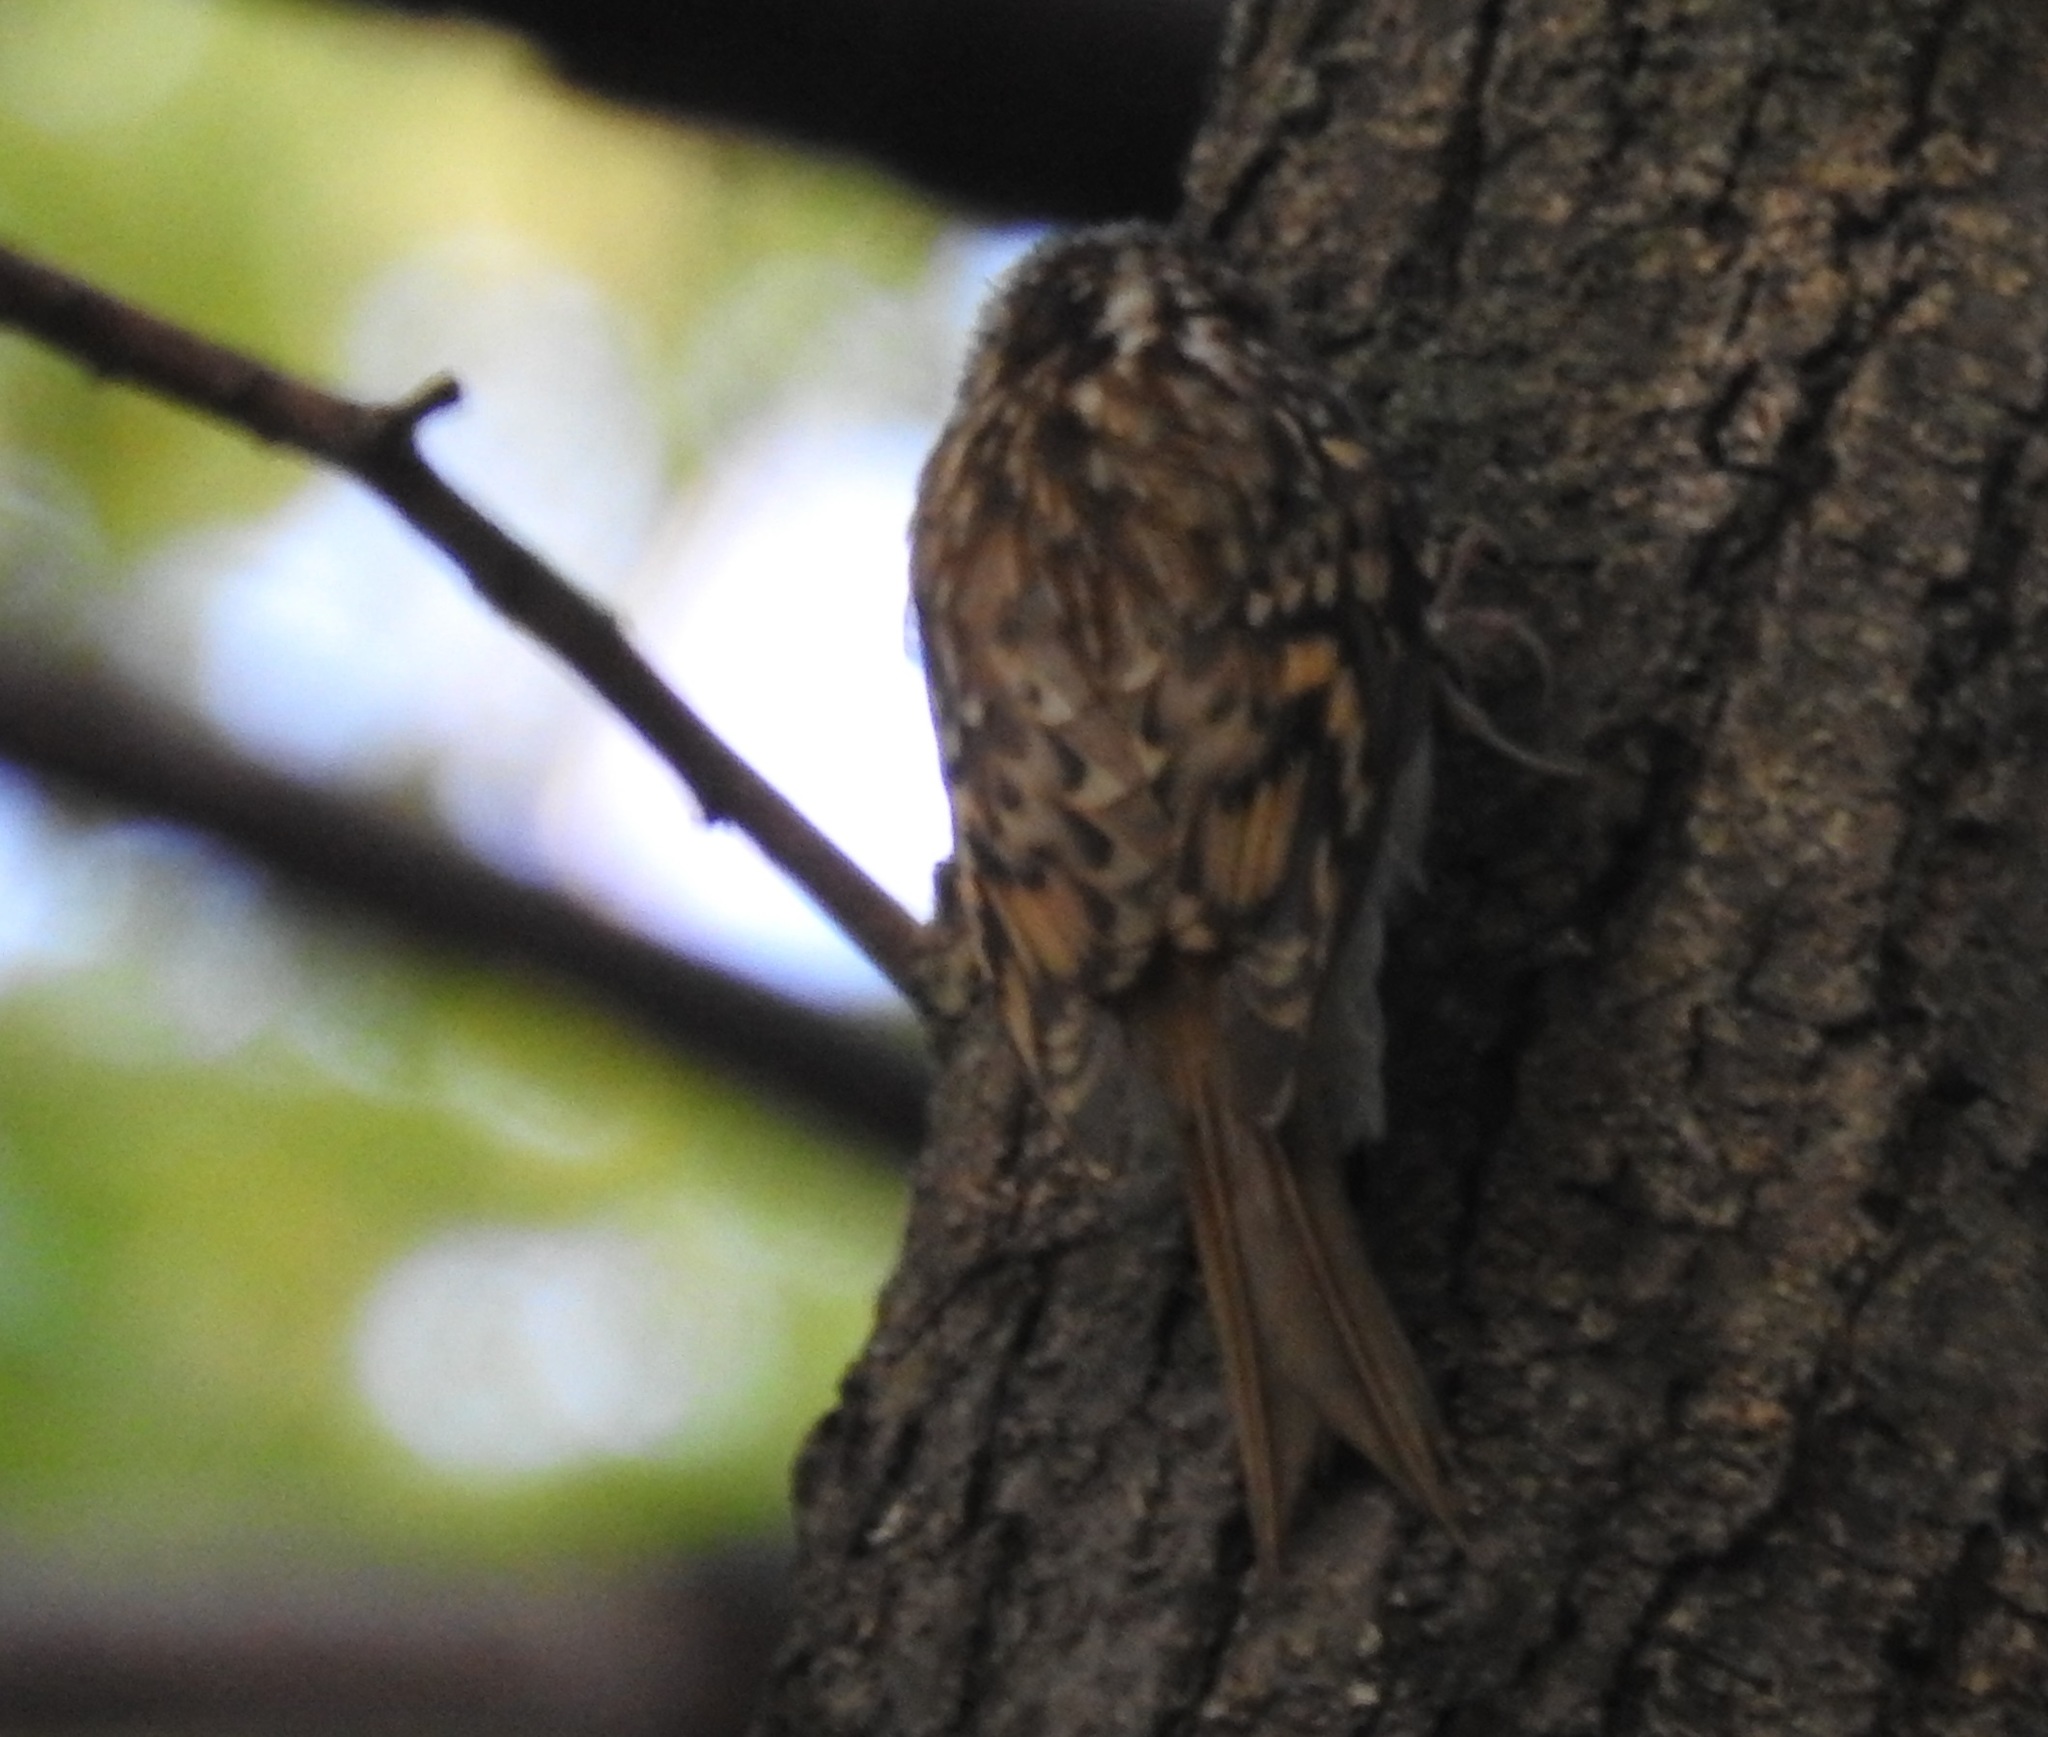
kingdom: Animalia
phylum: Chordata
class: Aves
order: Passeriformes
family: Certhiidae
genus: Certhia
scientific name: Certhia familiaris
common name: Eurasian treecreeper
